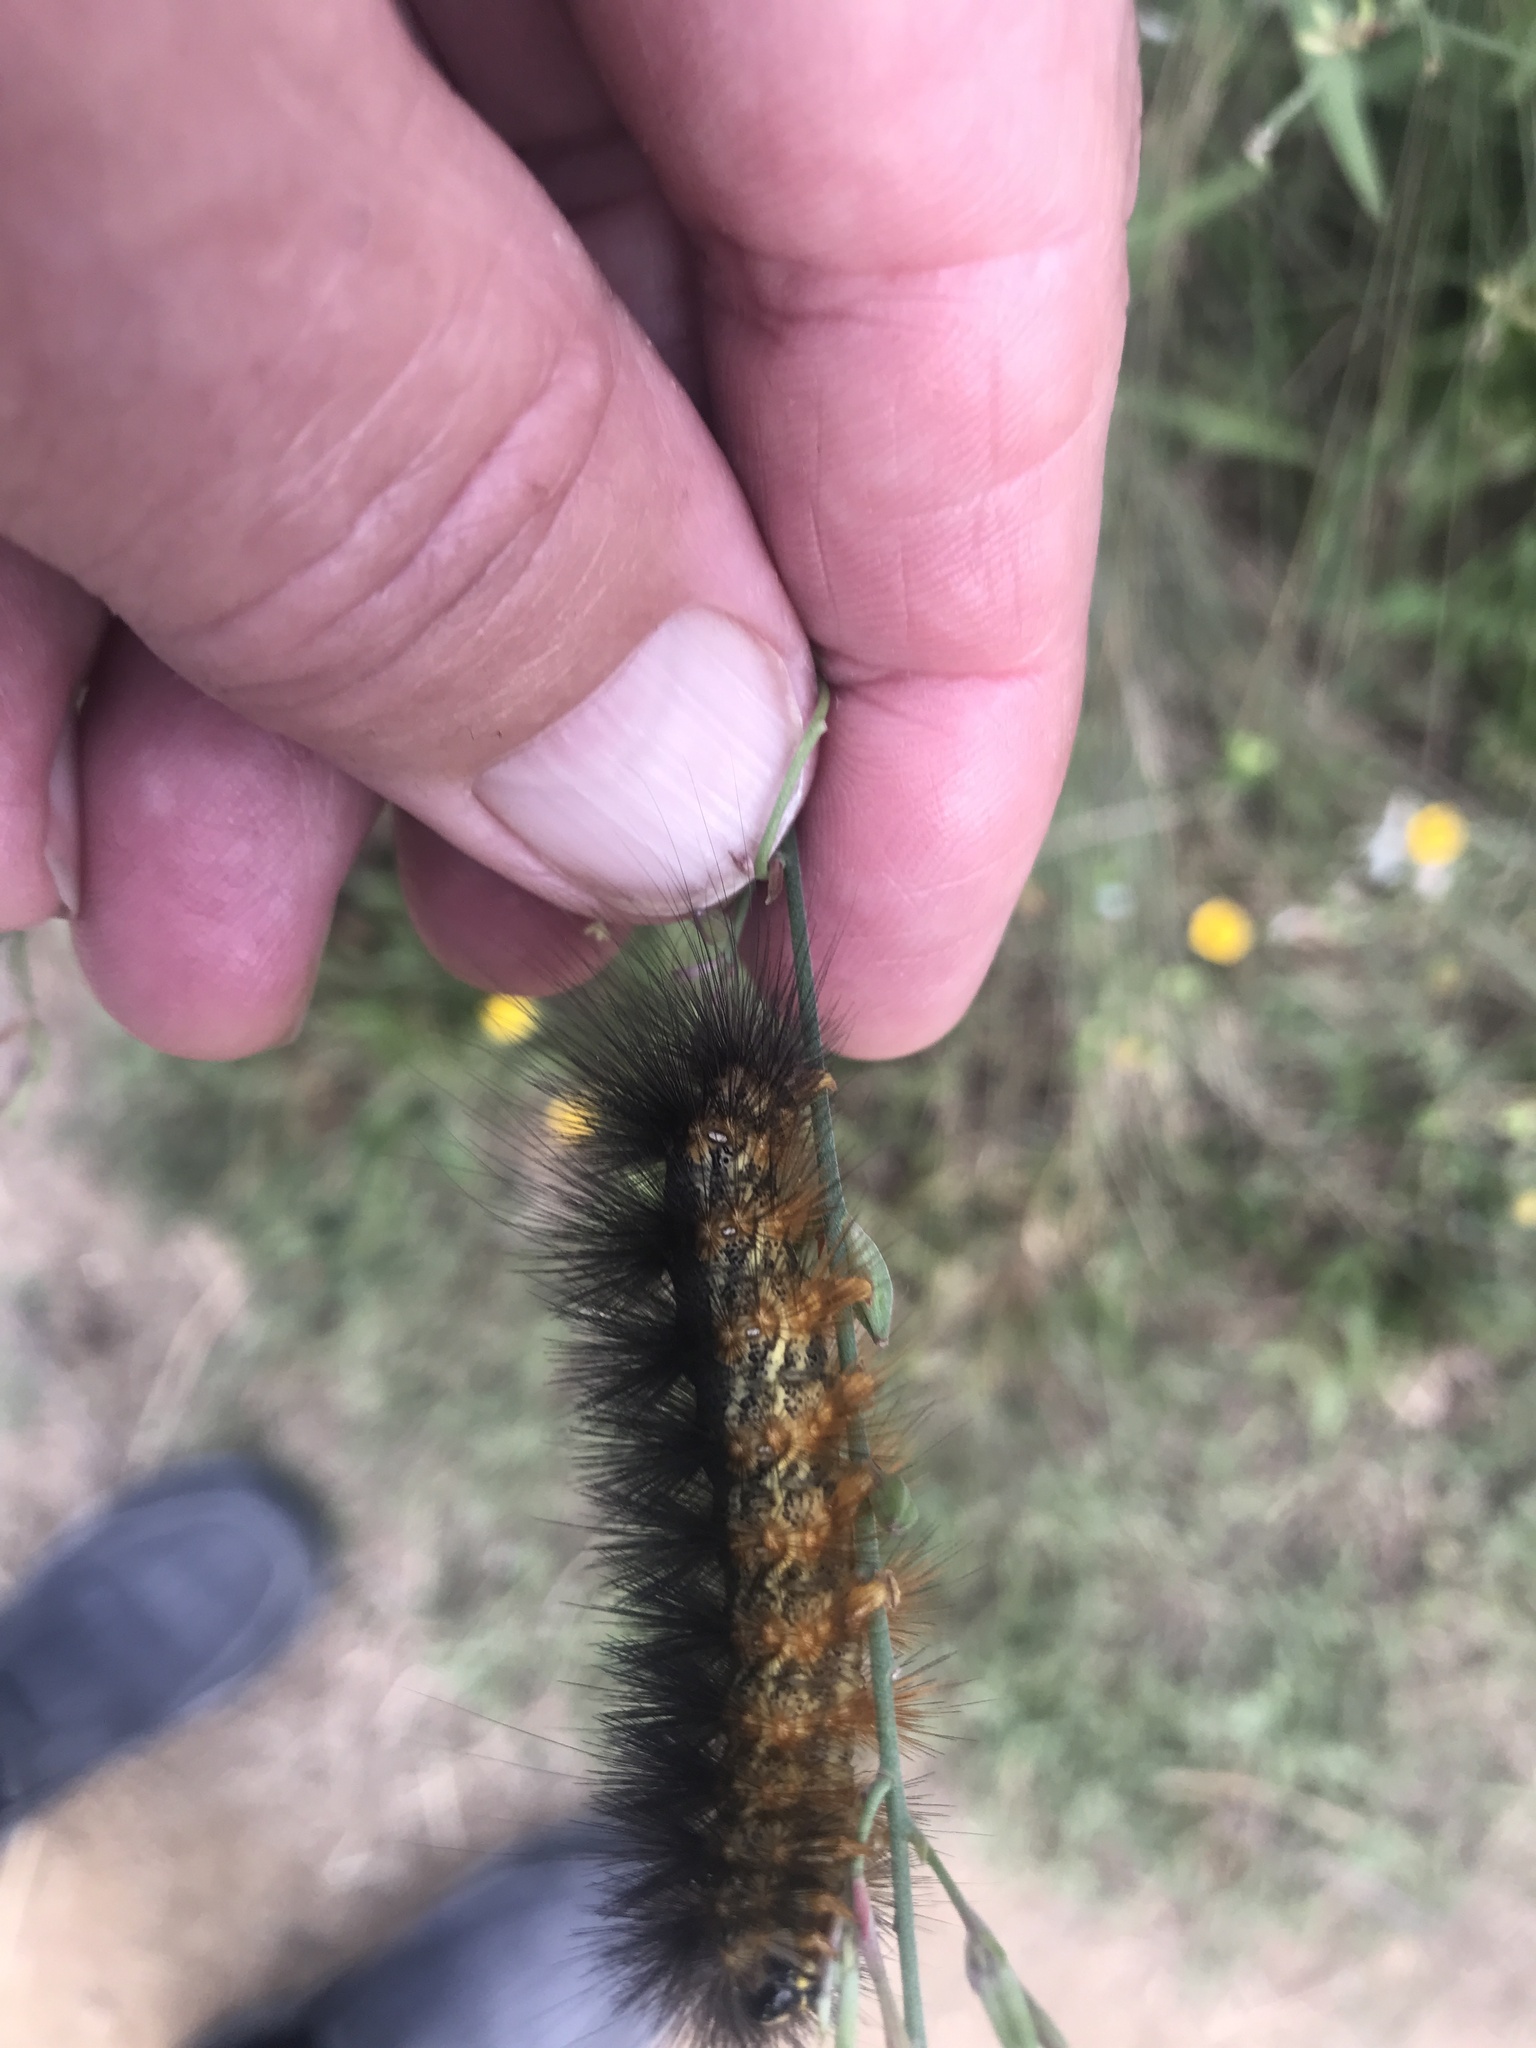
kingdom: Animalia
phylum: Arthropoda
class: Insecta
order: Lepidoptera
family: Erebidae
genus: Estigmene
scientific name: Estigmene acrea
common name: Salt marsh moth
